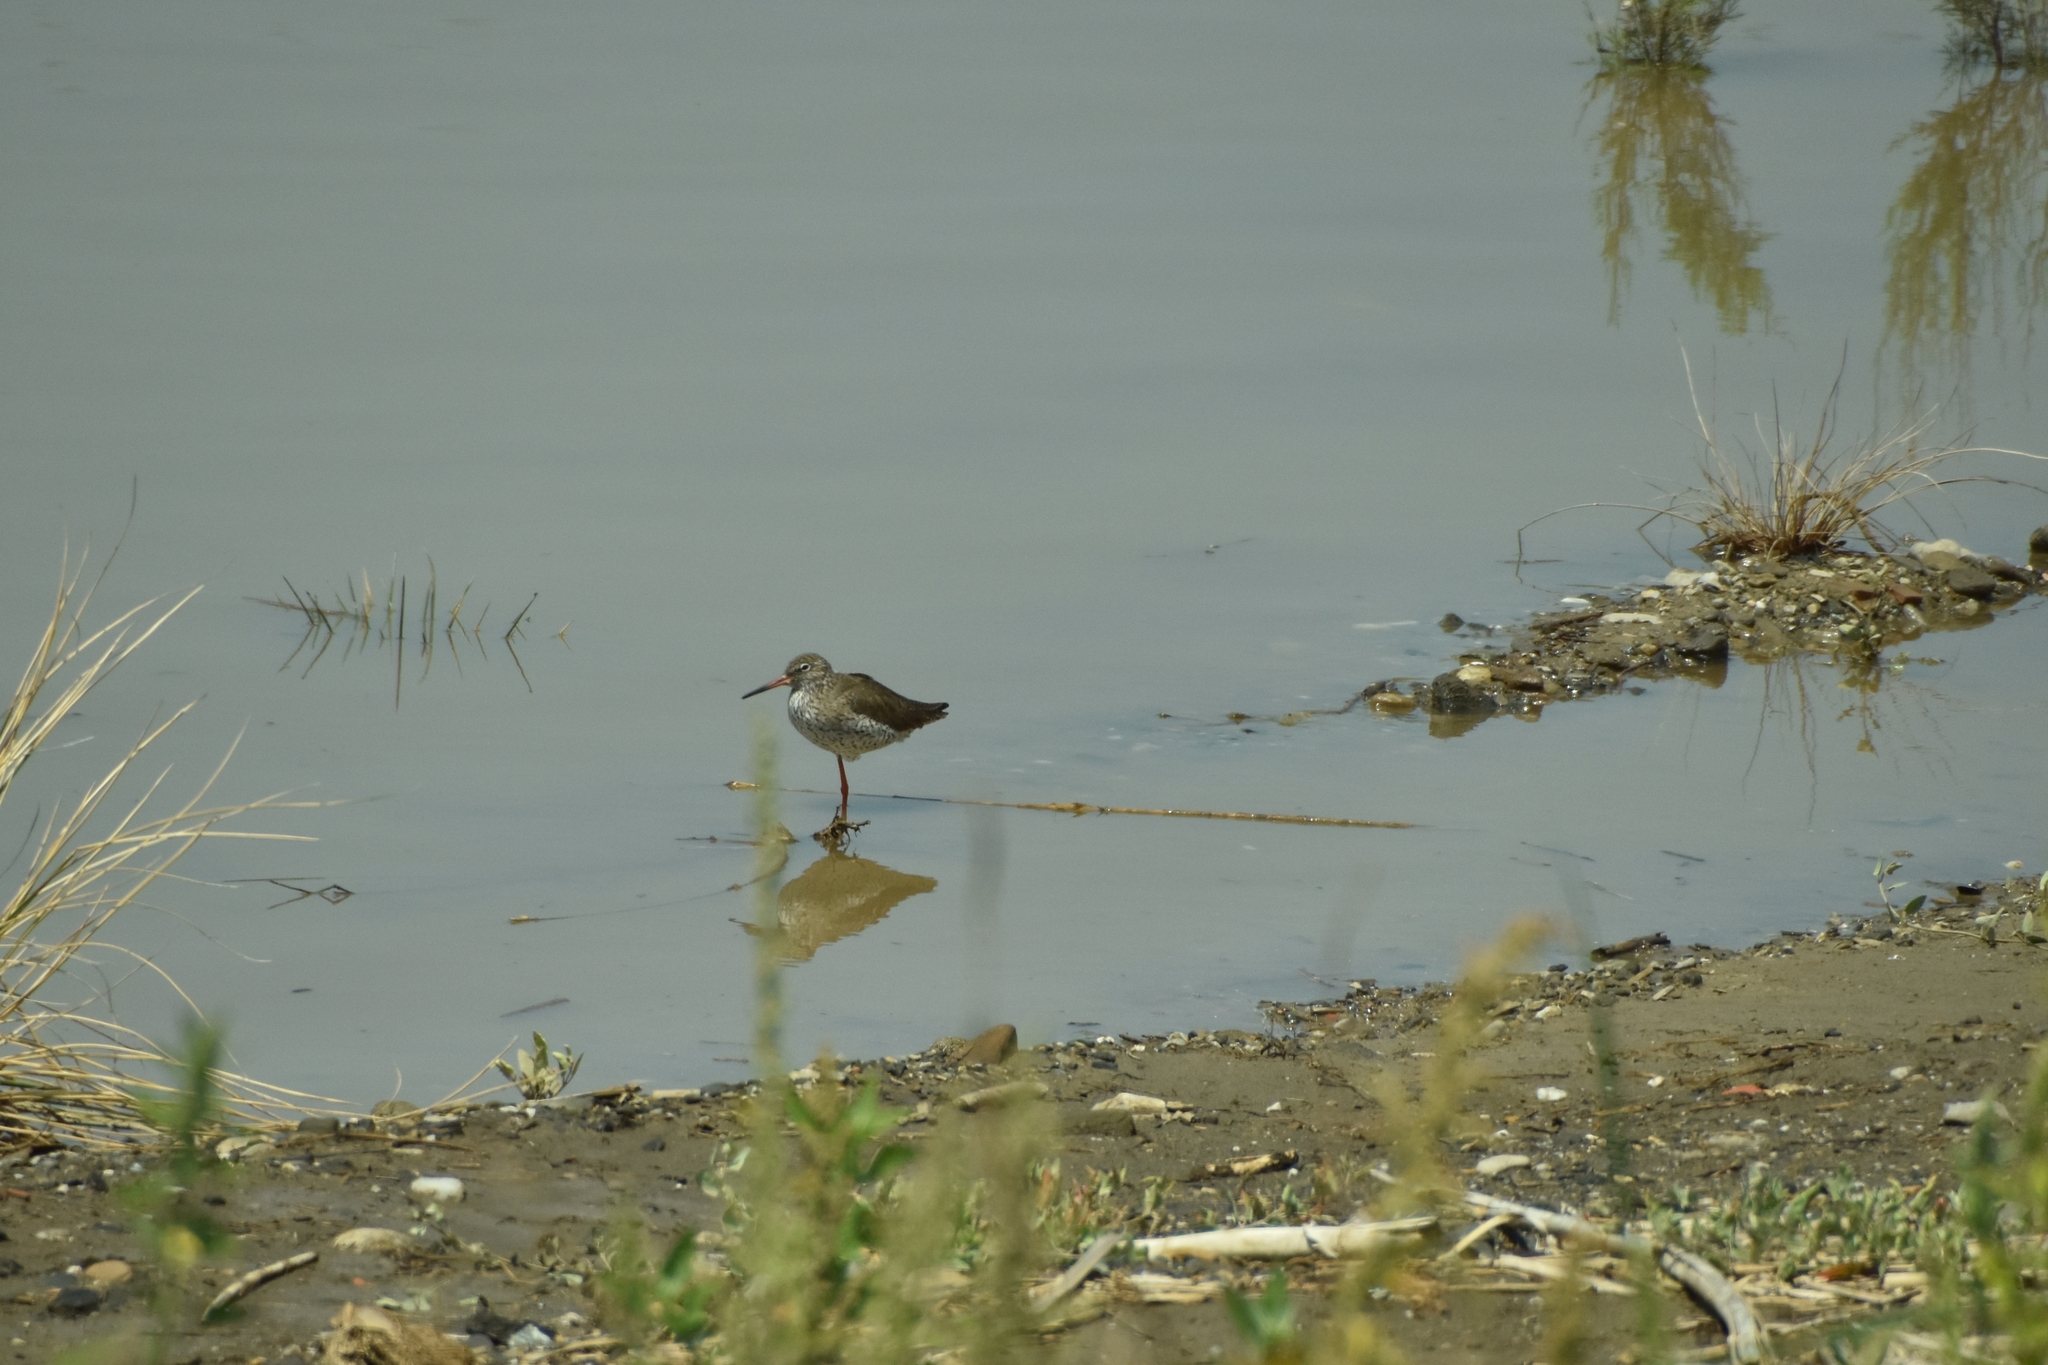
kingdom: Animalia
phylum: Chordata
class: Aves
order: Charadriiformes
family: Scolopacidae
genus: Tringa
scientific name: Tringa totanus
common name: Common redshank
